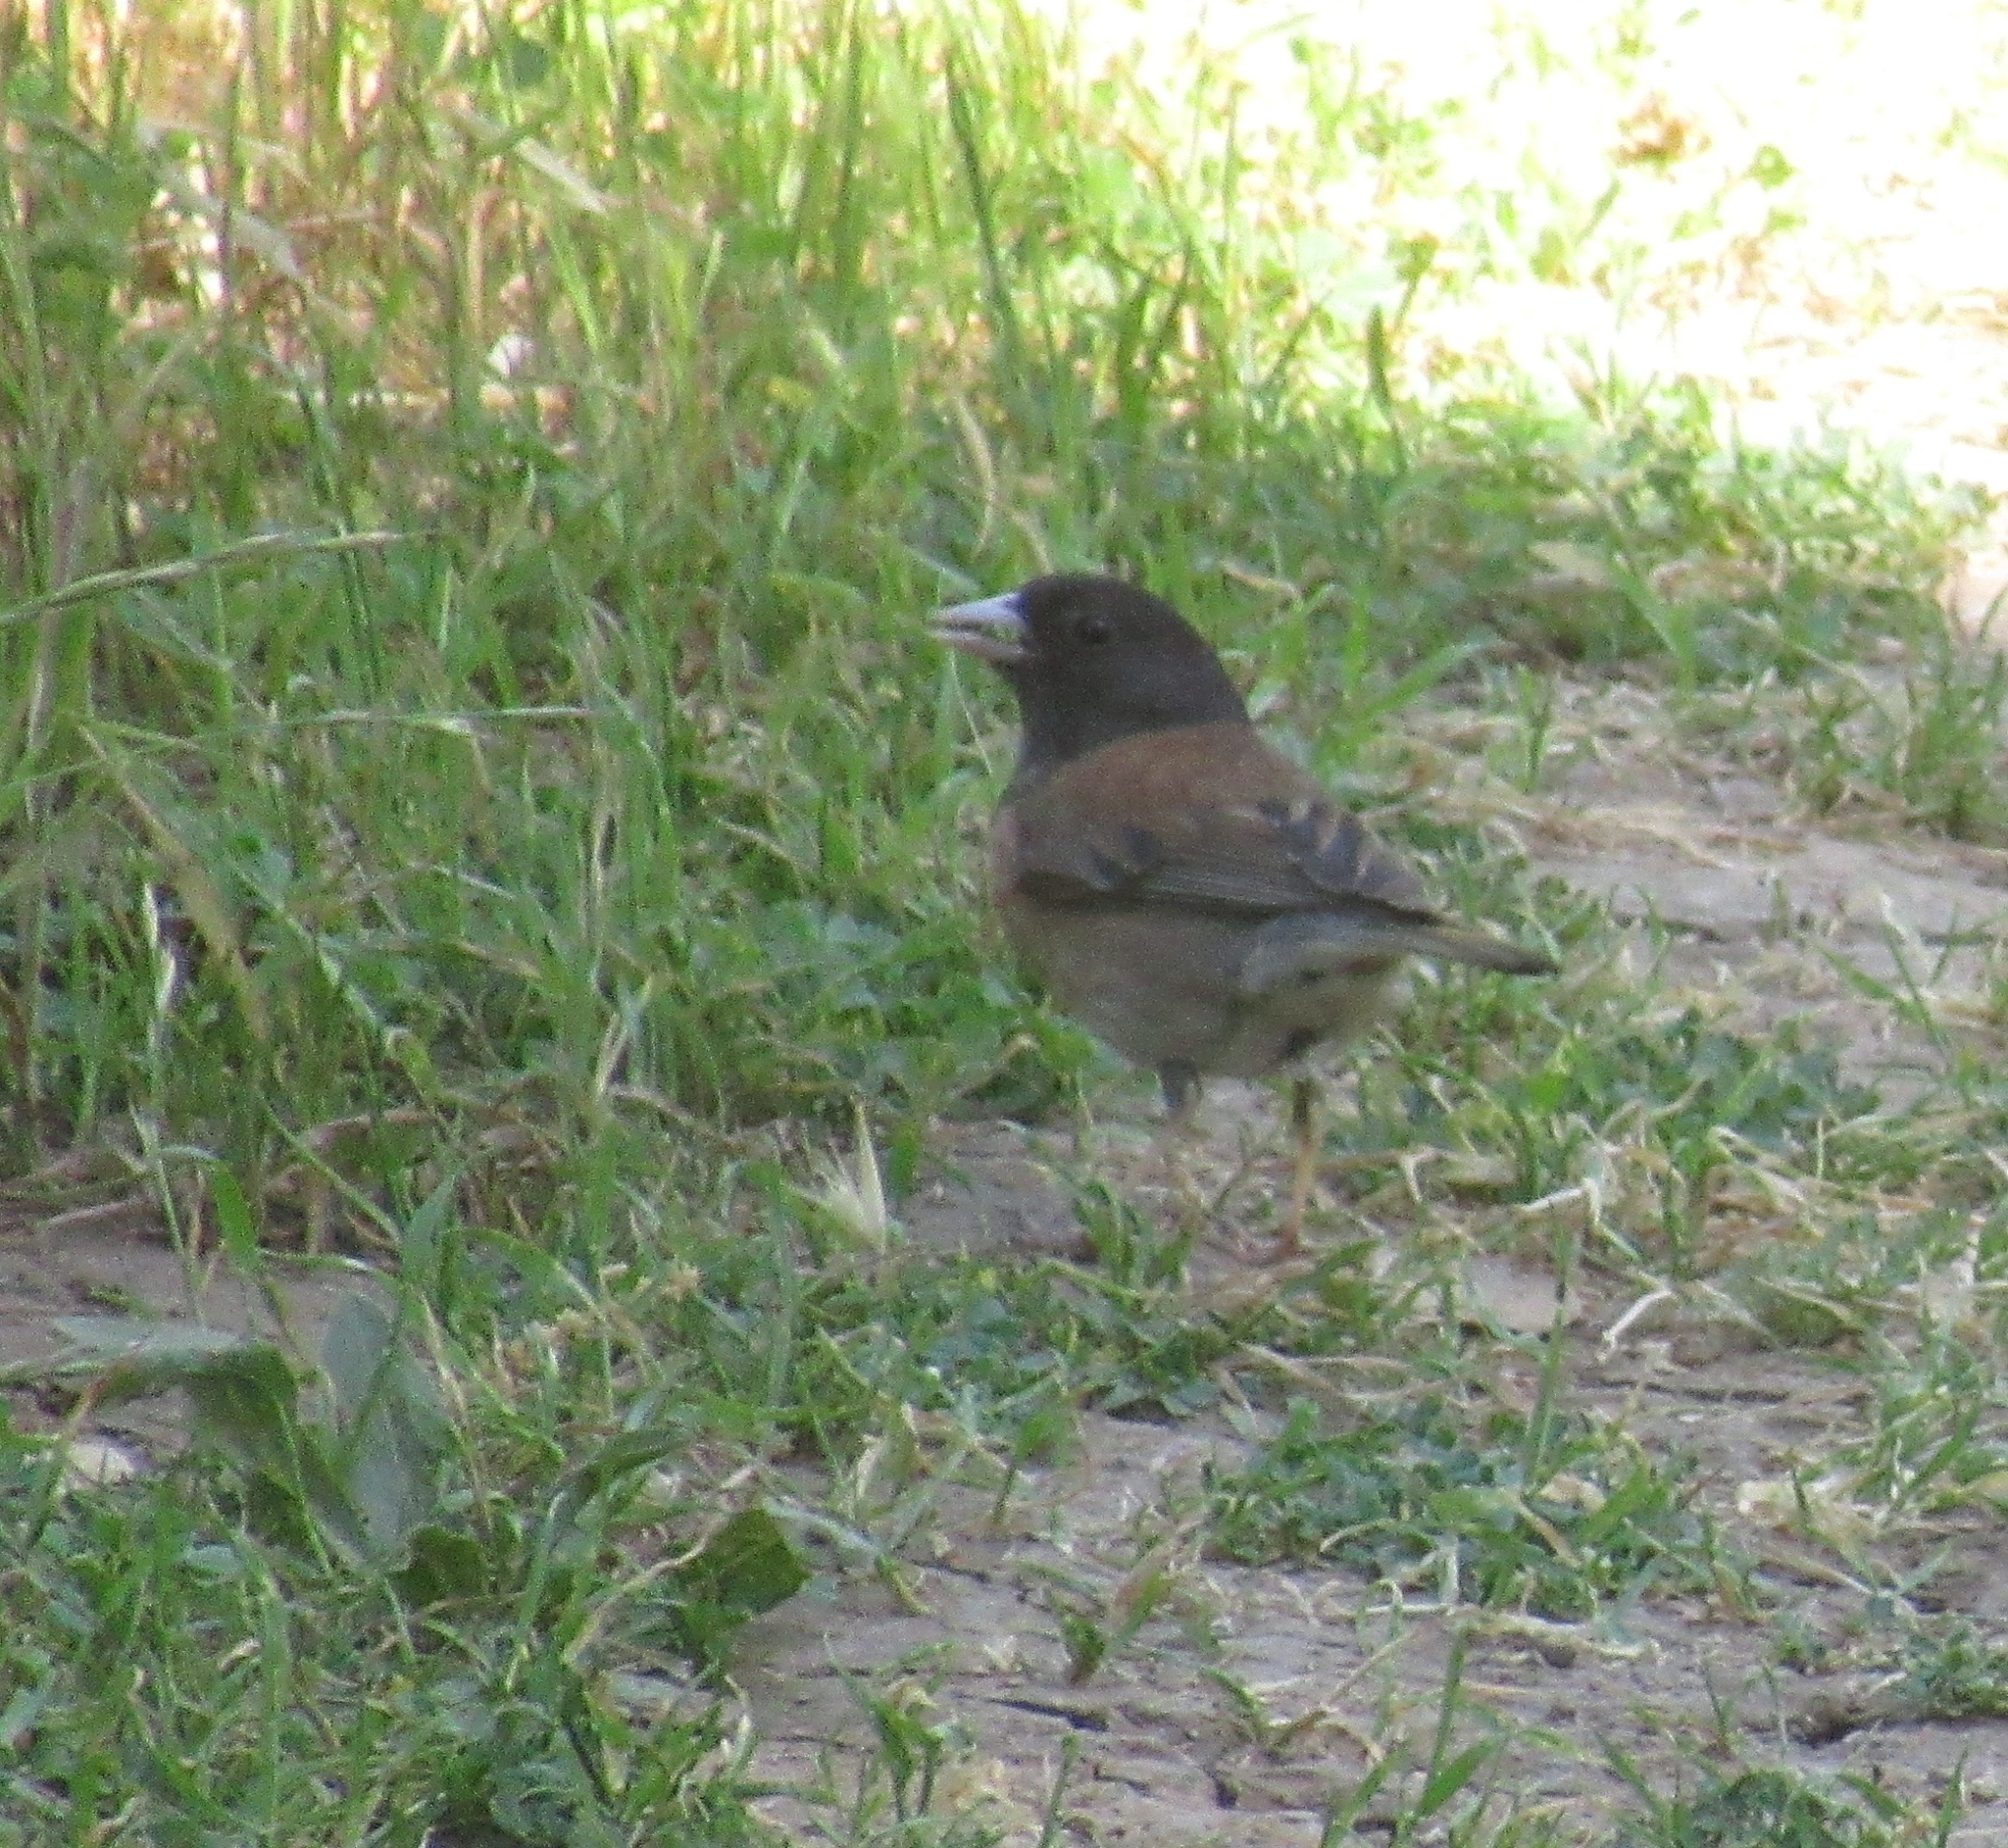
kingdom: Animalia
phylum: Chordata
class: Aves
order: Passeriformes
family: Passerellidae
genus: Junco
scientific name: Junco hyemalis
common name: Dark-eyed junco
